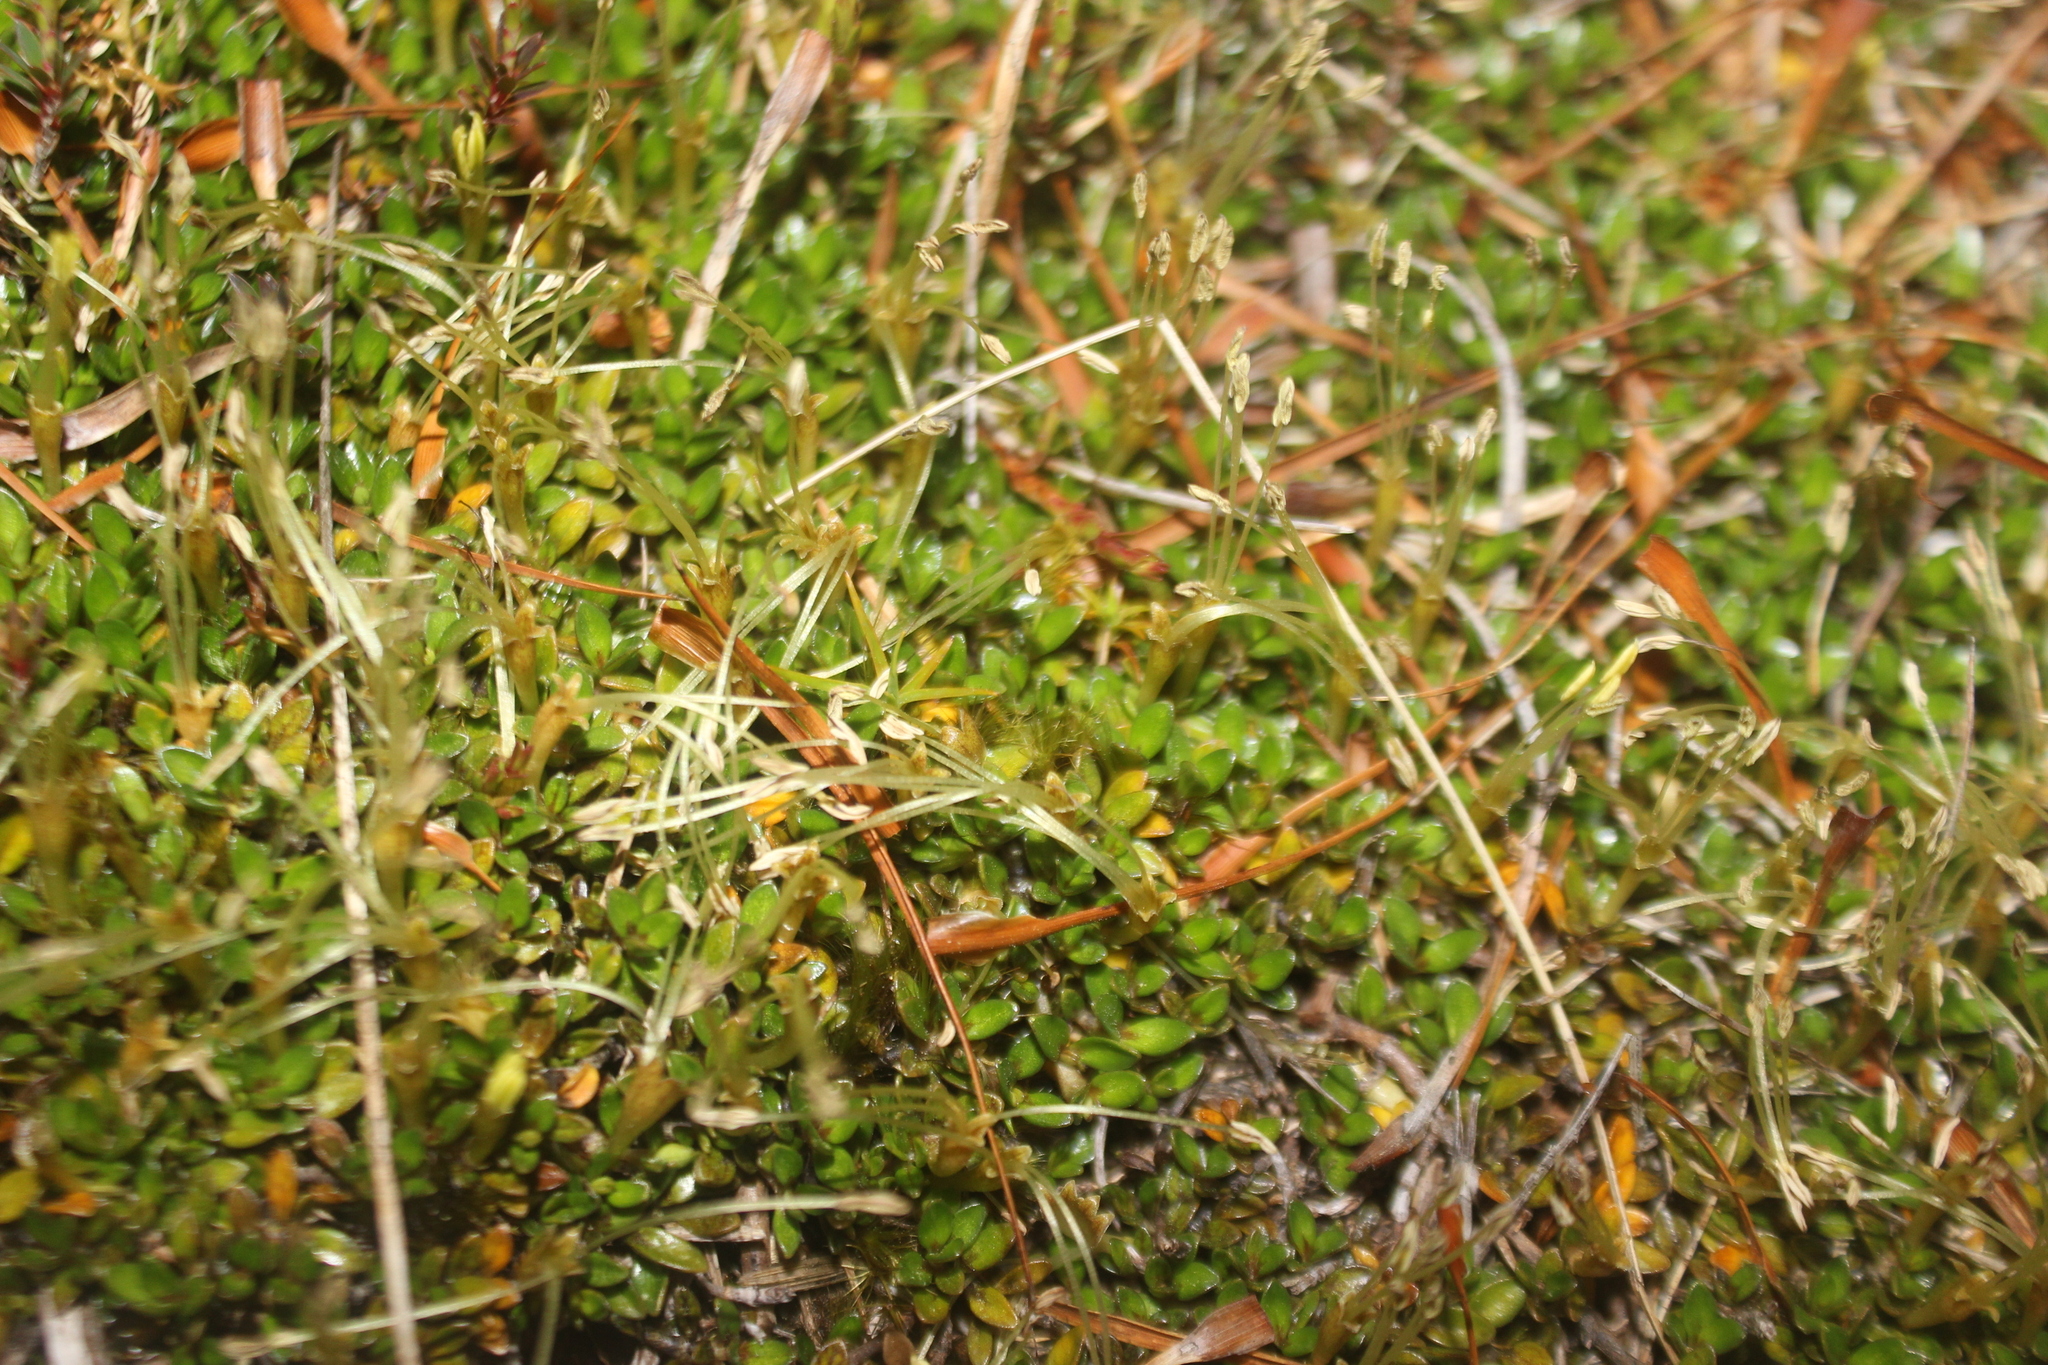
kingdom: Plantae
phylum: Tracheophyta
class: Magnoliopsida
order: Gentianales
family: Rubiaceae
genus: Coprosma
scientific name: Coprosma perpusilla
